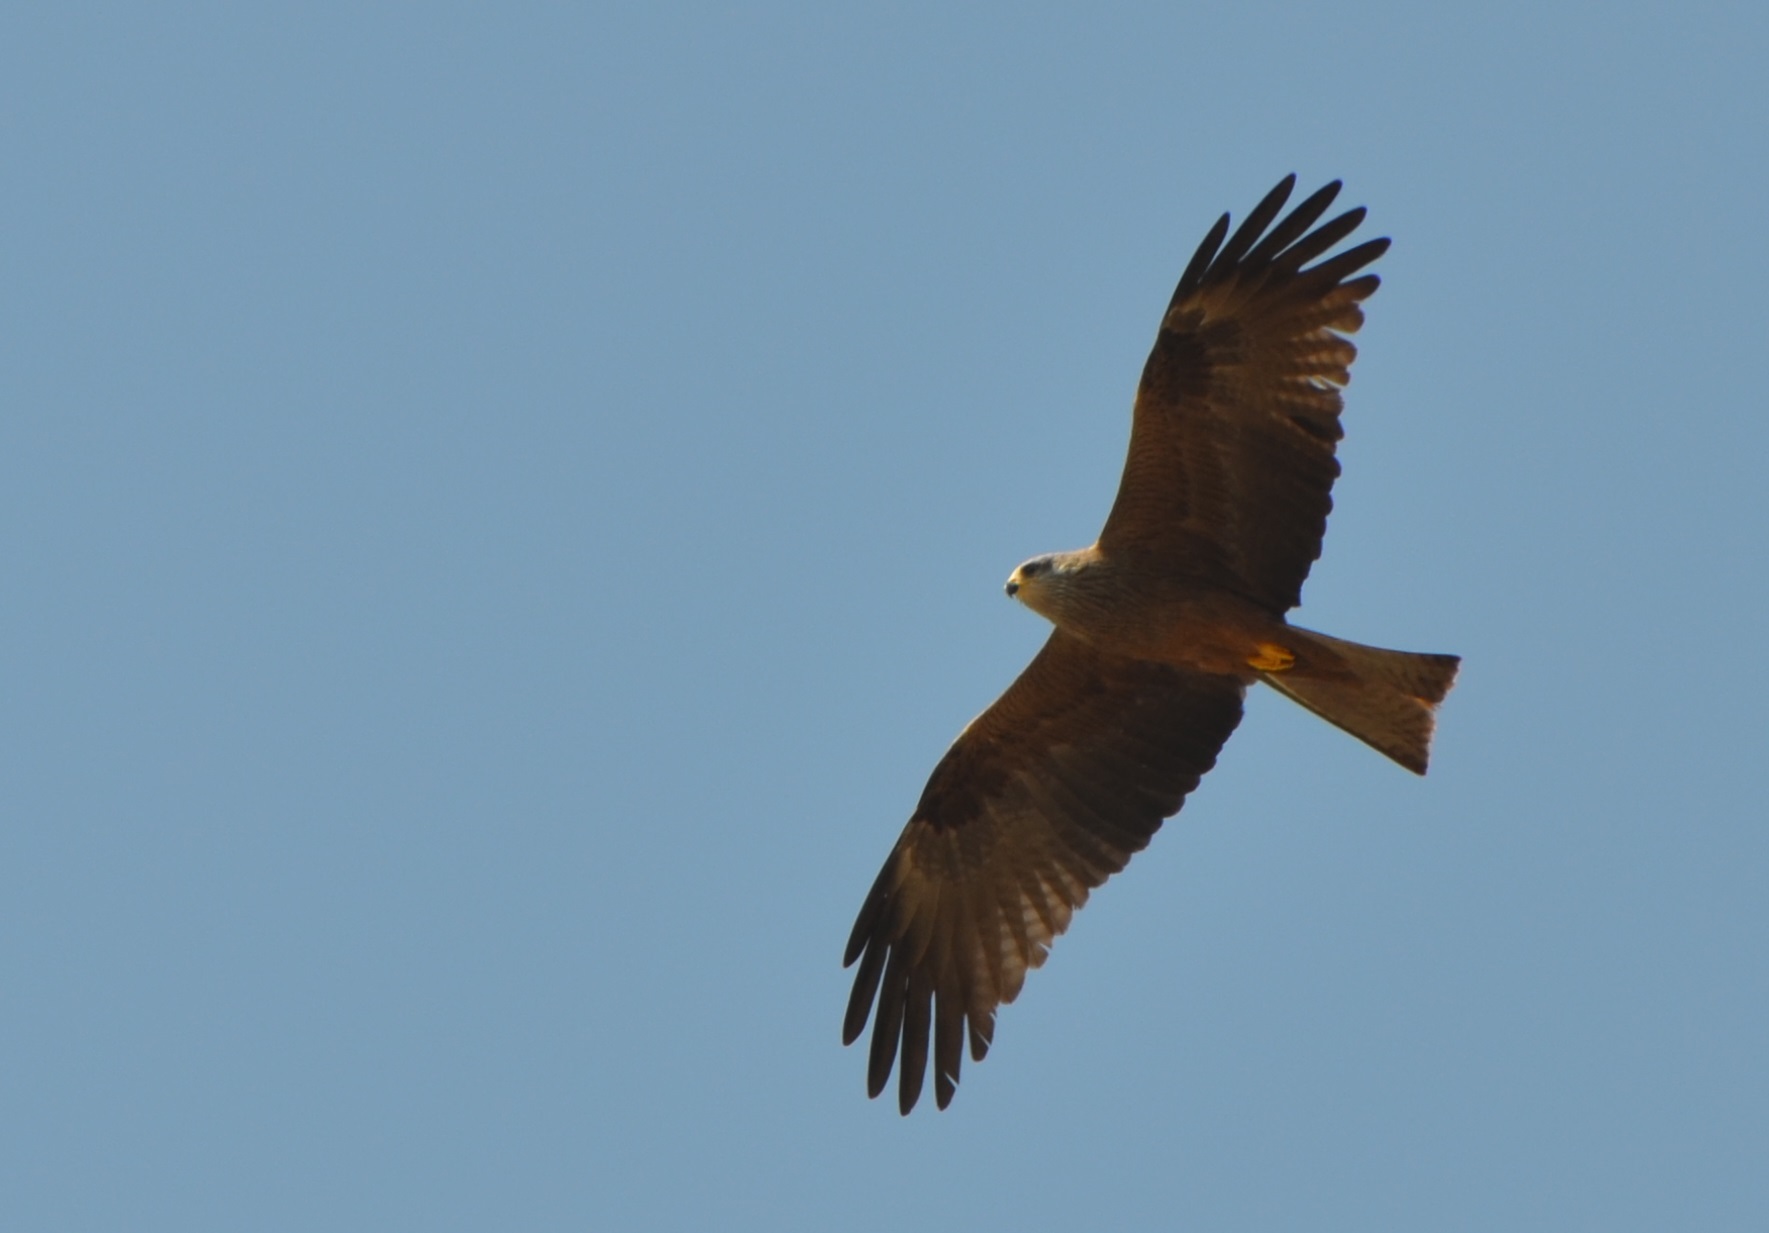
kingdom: Animalia
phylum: Chordata
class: Aves
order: Accipitriformes
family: Accipitridae
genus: Milvus
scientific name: Milvus migrans
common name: Black kite
